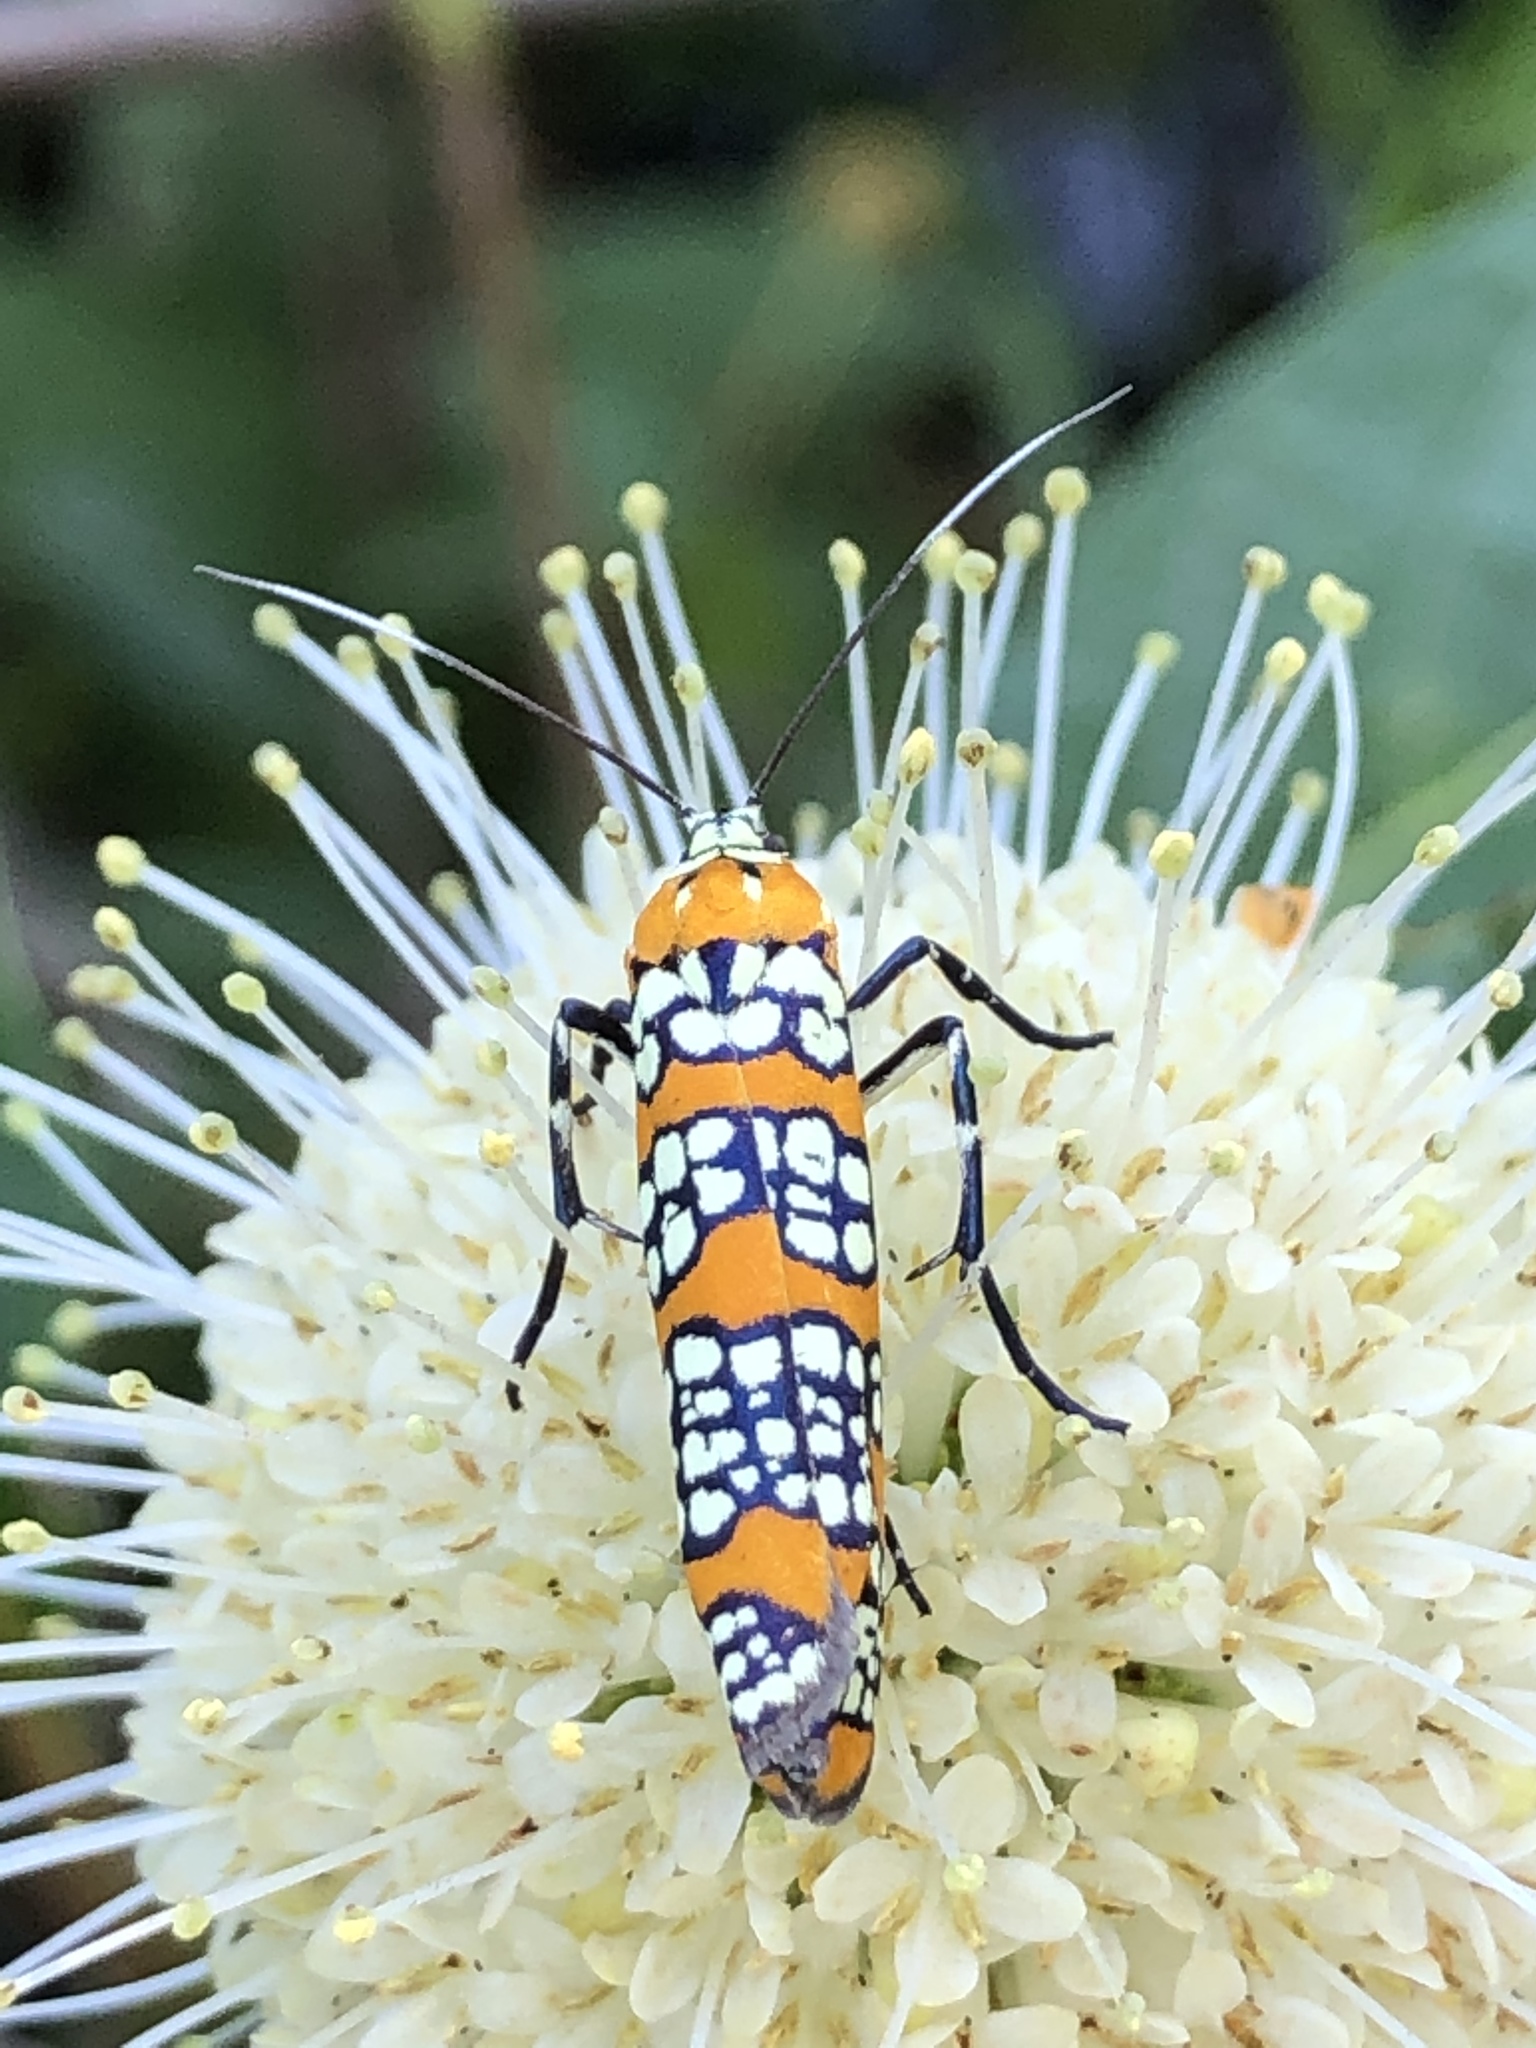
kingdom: Animalia
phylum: Arthropoda
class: Insecta
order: Lepidoptera
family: Attevidae
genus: Atteva
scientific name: Atteva punctella
